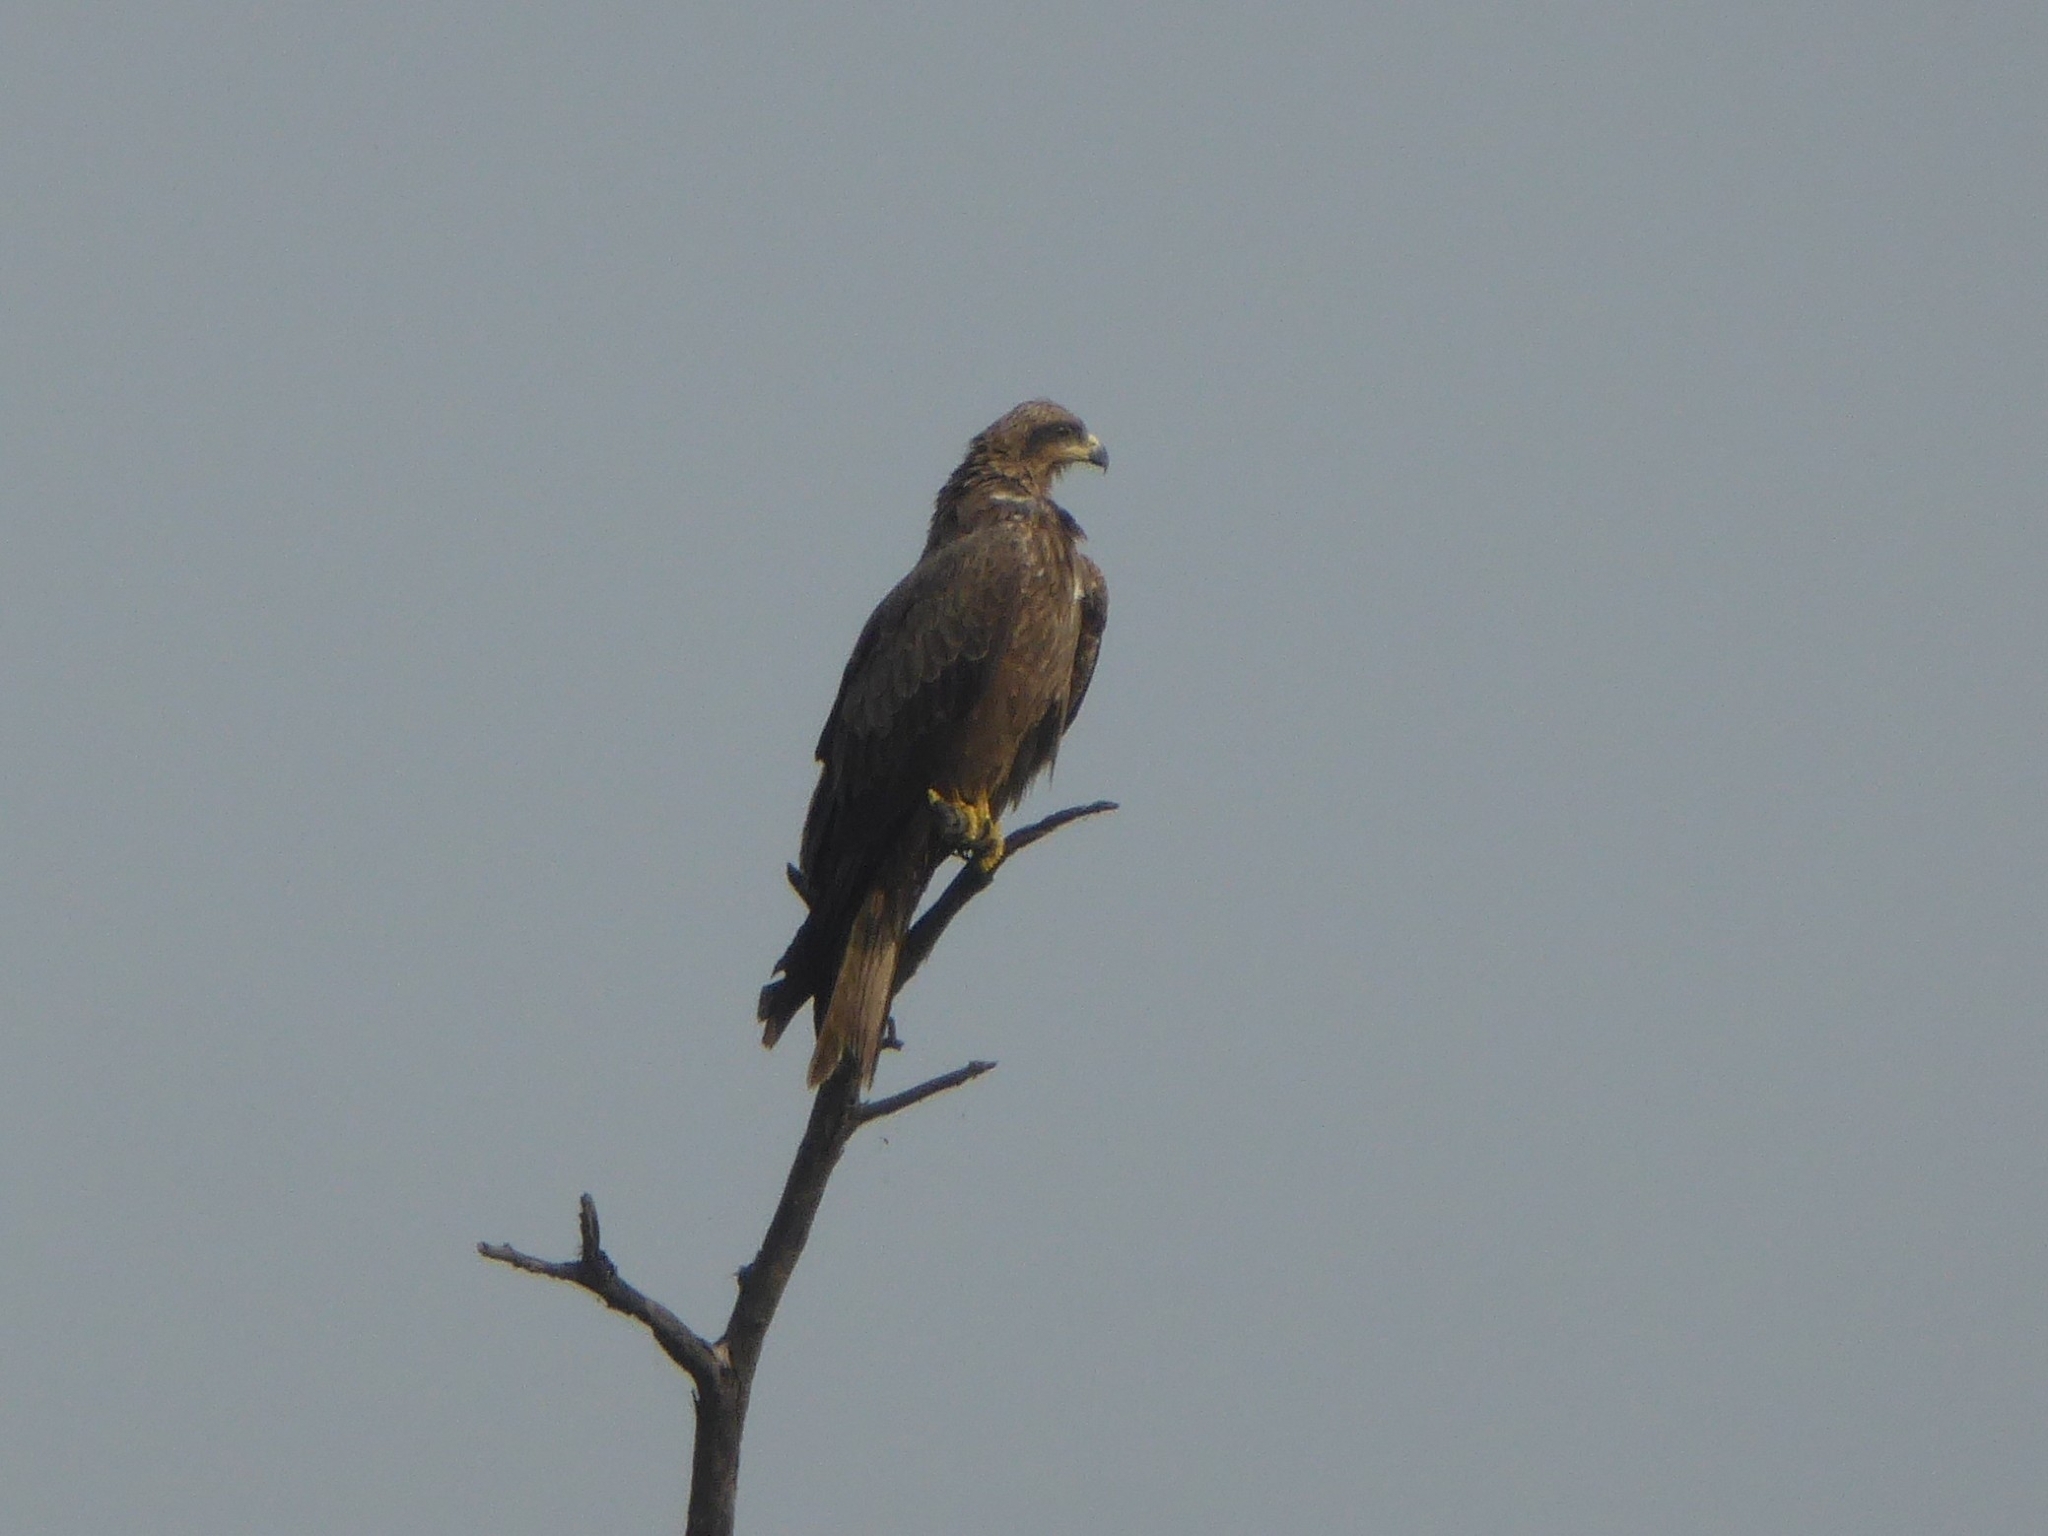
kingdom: Animalia
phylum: Chordata
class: Aves
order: Accipitriformes
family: Accipitridae
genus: Milvus
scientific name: Milvus migrans
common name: Black kite
